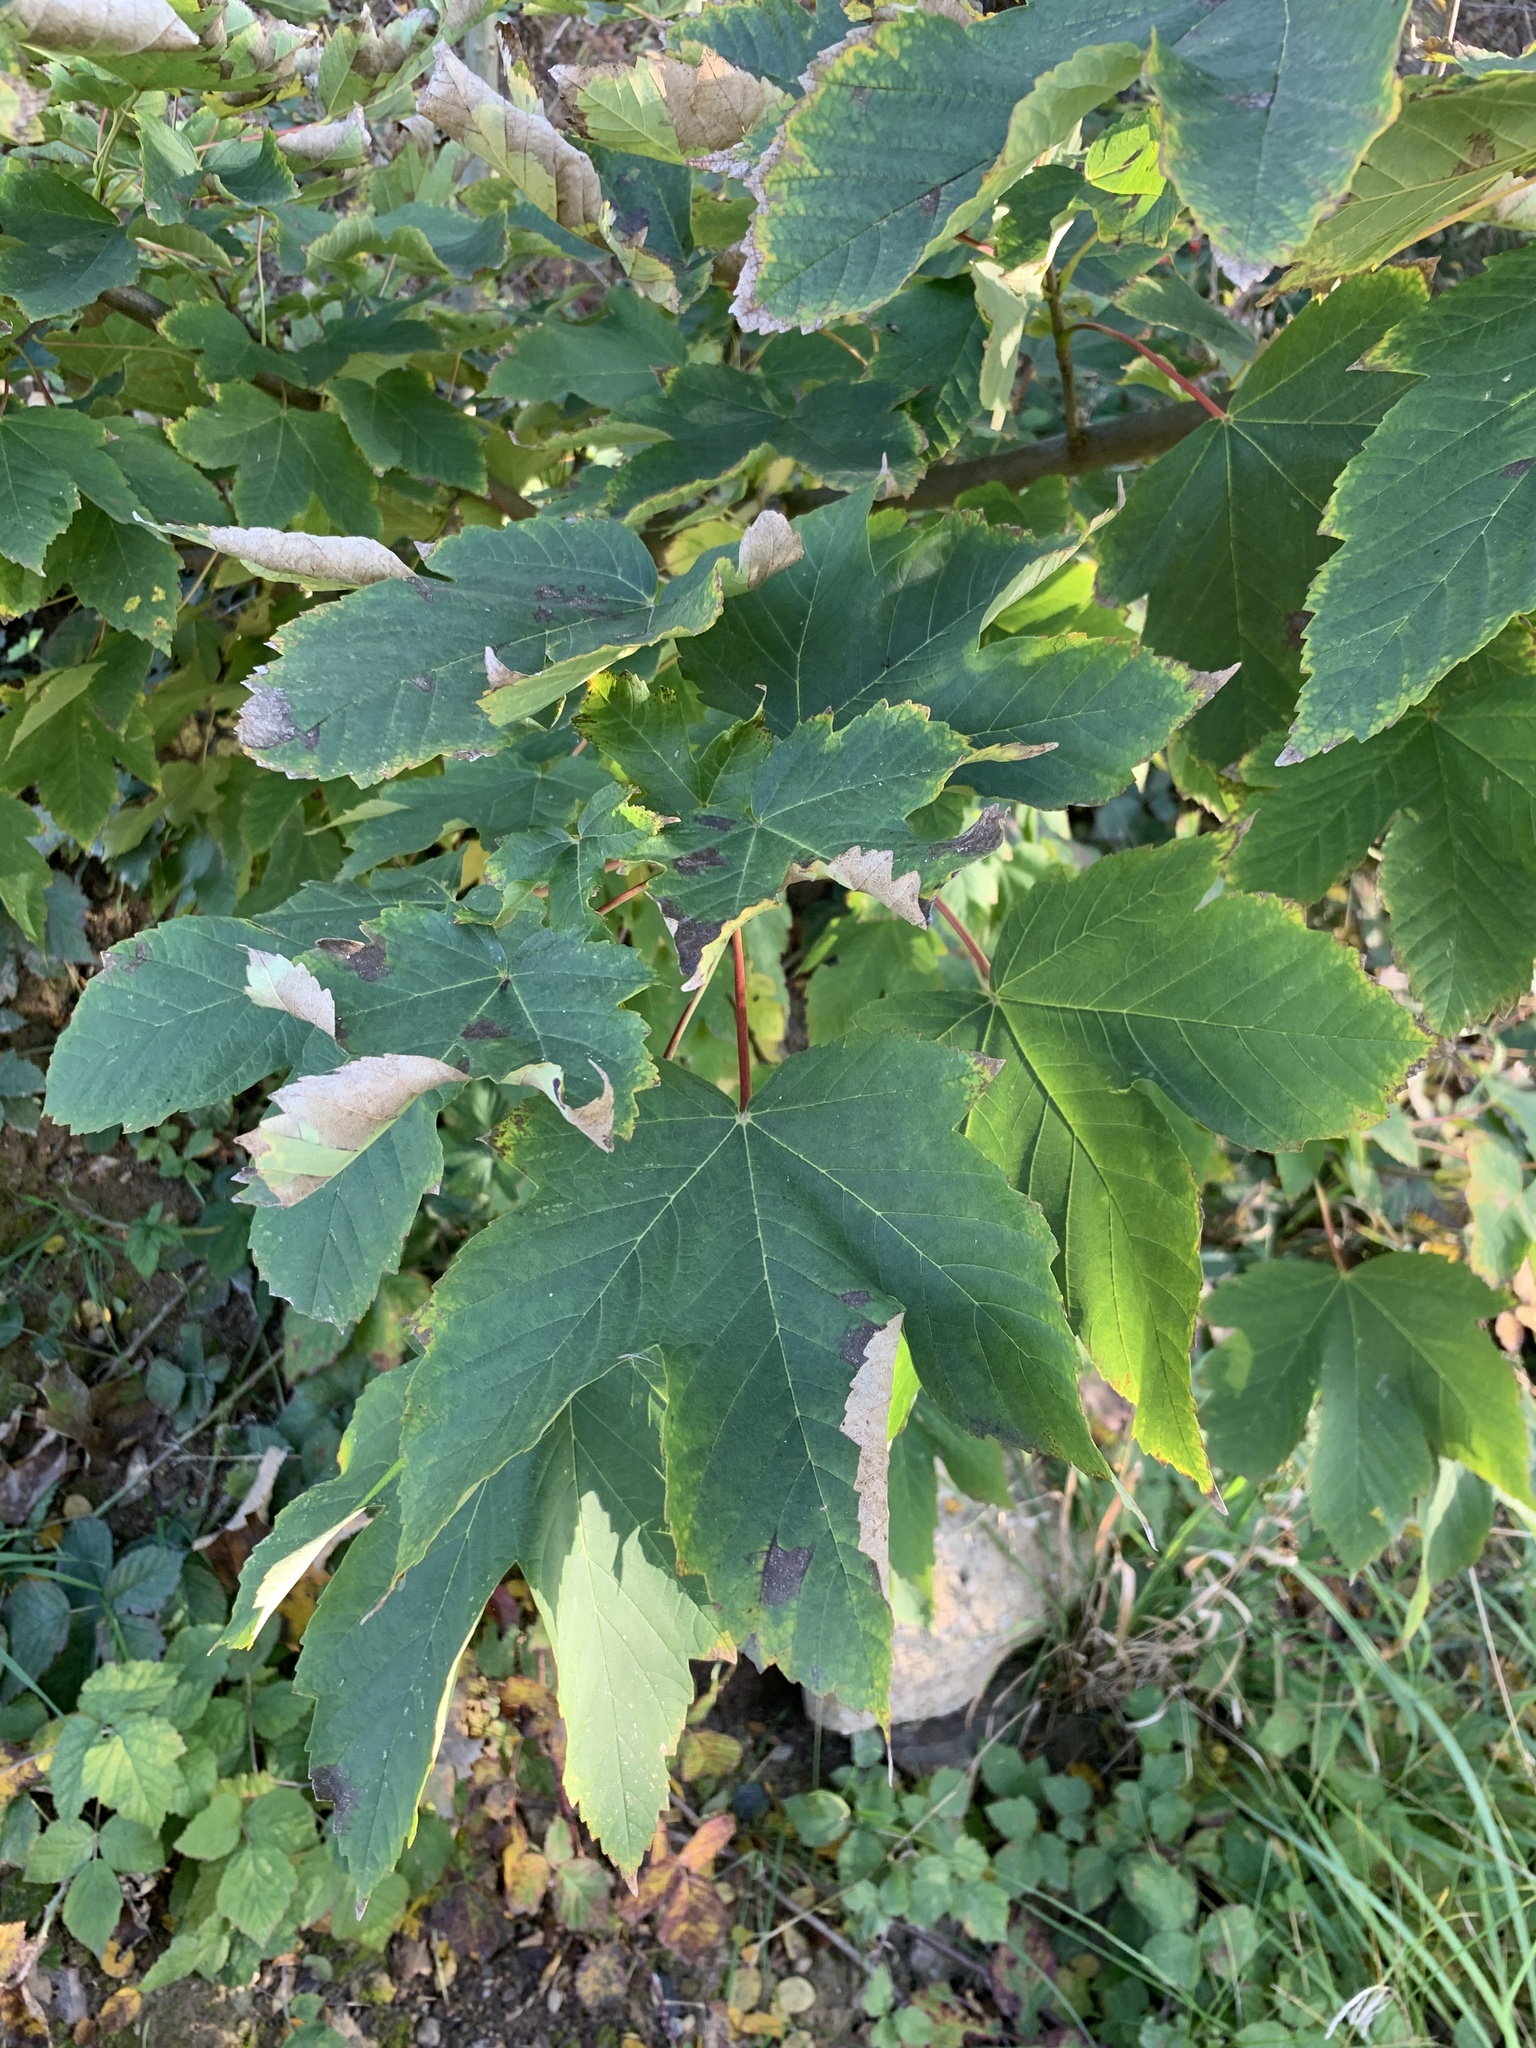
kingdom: Plantae
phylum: Tracheophyta
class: Magnoliopsida
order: Sapindales
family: Sapindaceae
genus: Acer
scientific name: Acer pseudoplatanus
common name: Sycamore
